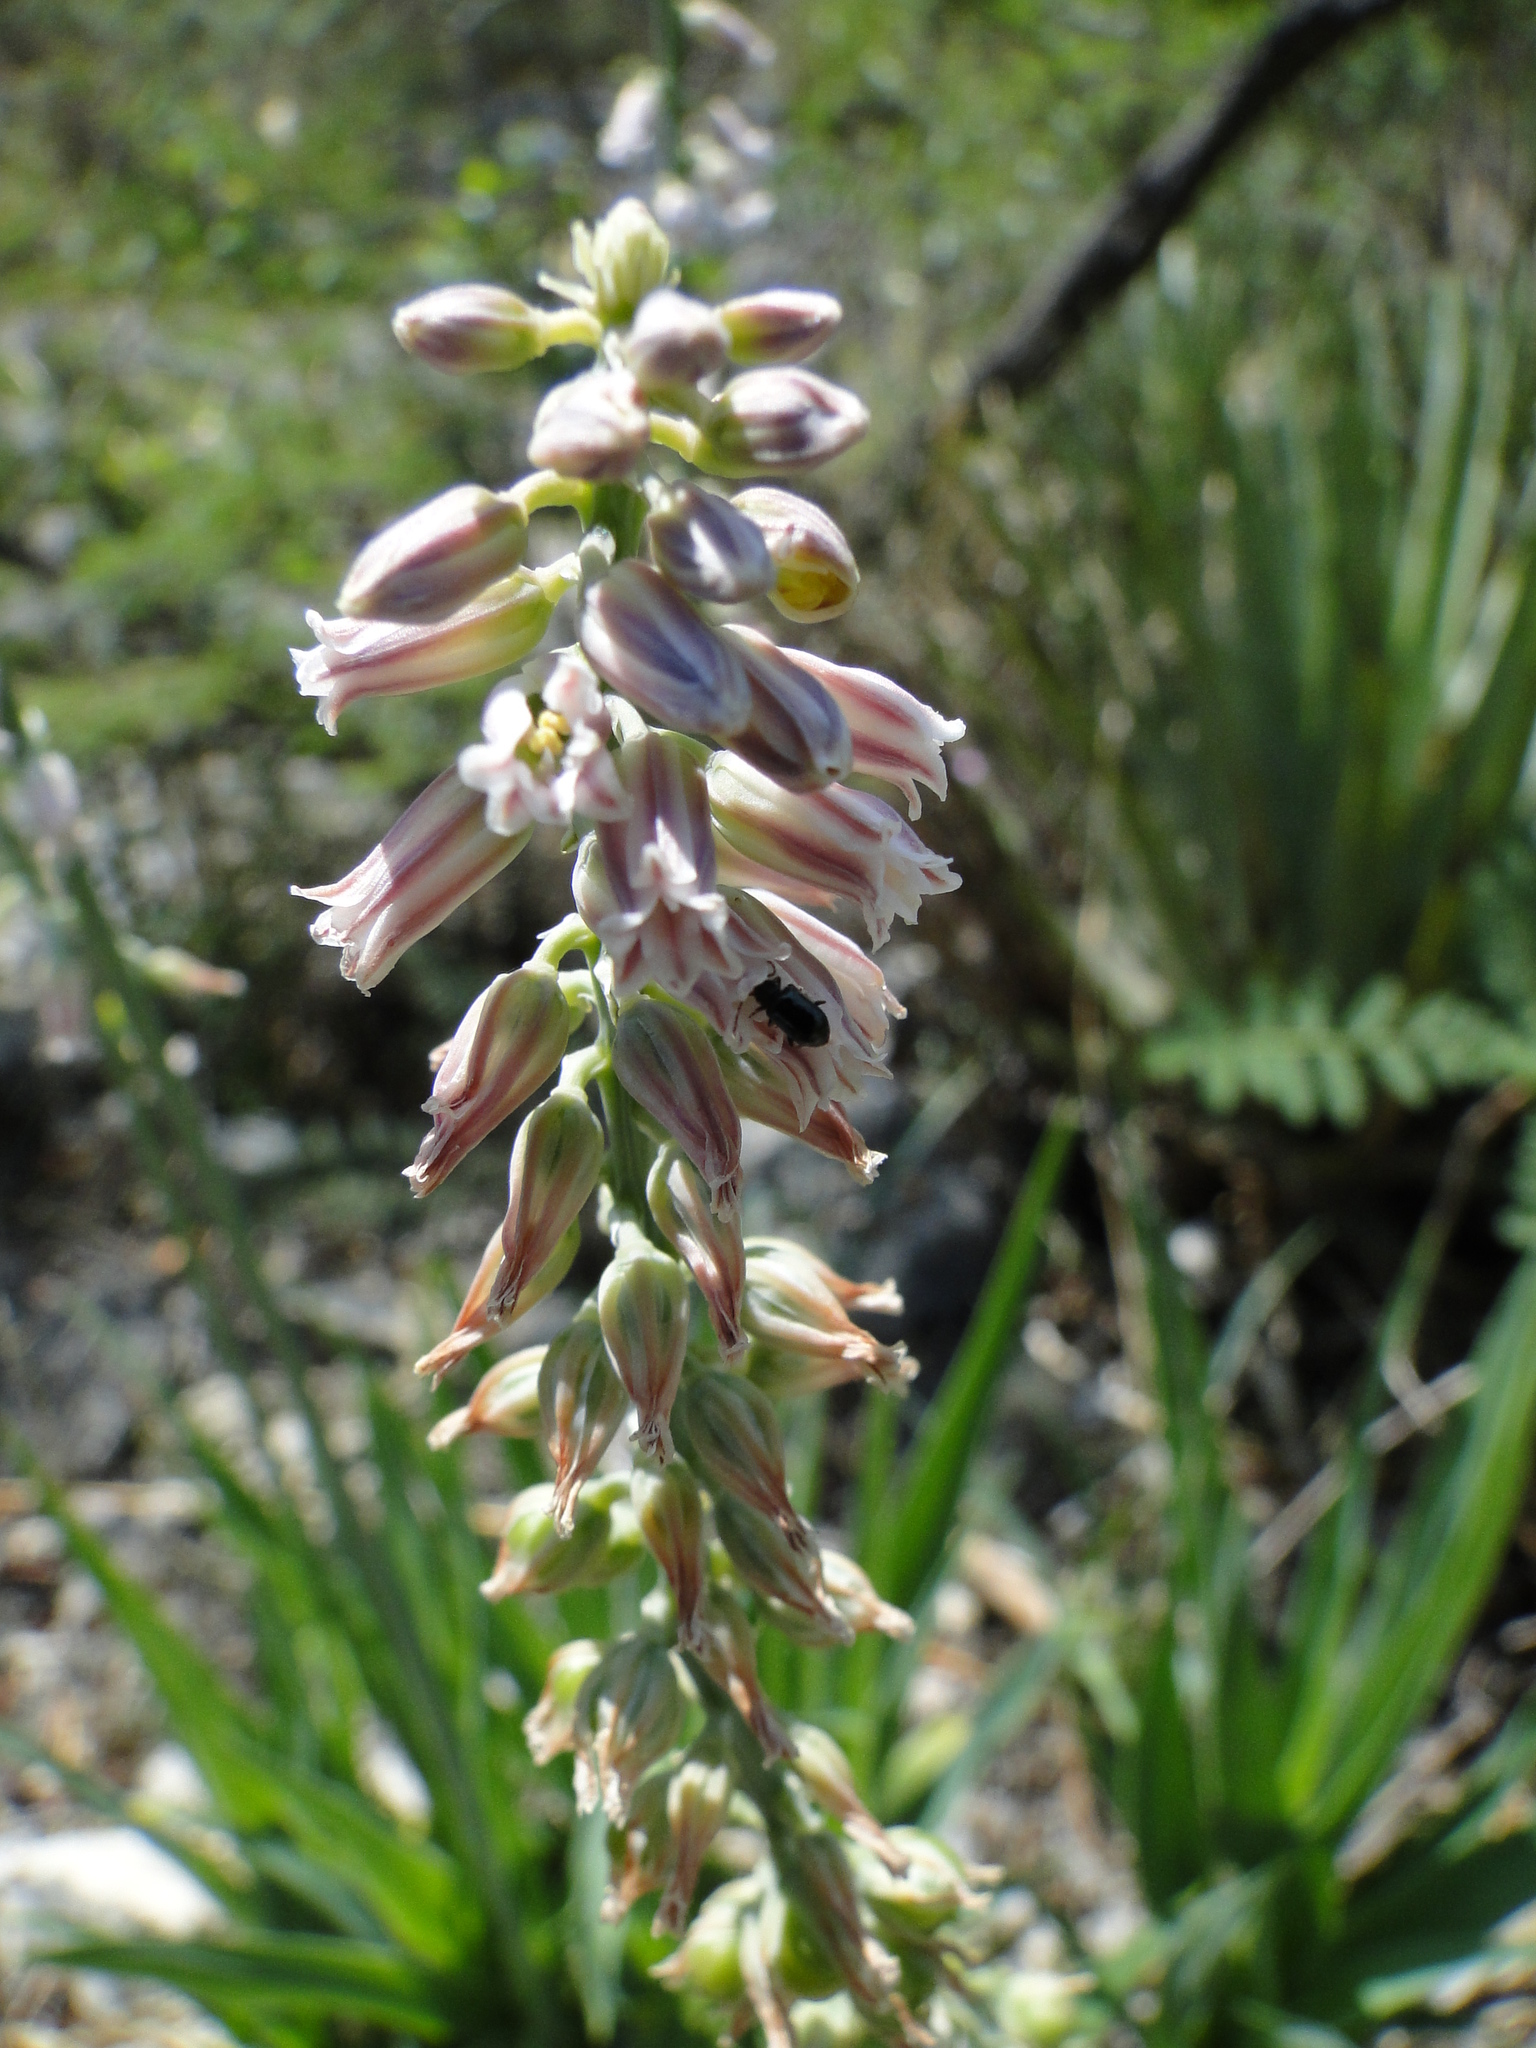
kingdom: Plantae
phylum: Tracheophyta
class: Liliopsida
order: Asparagales
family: Asparagaceae
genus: Hemiphylacus
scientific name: Hemiphylacus mahindae
